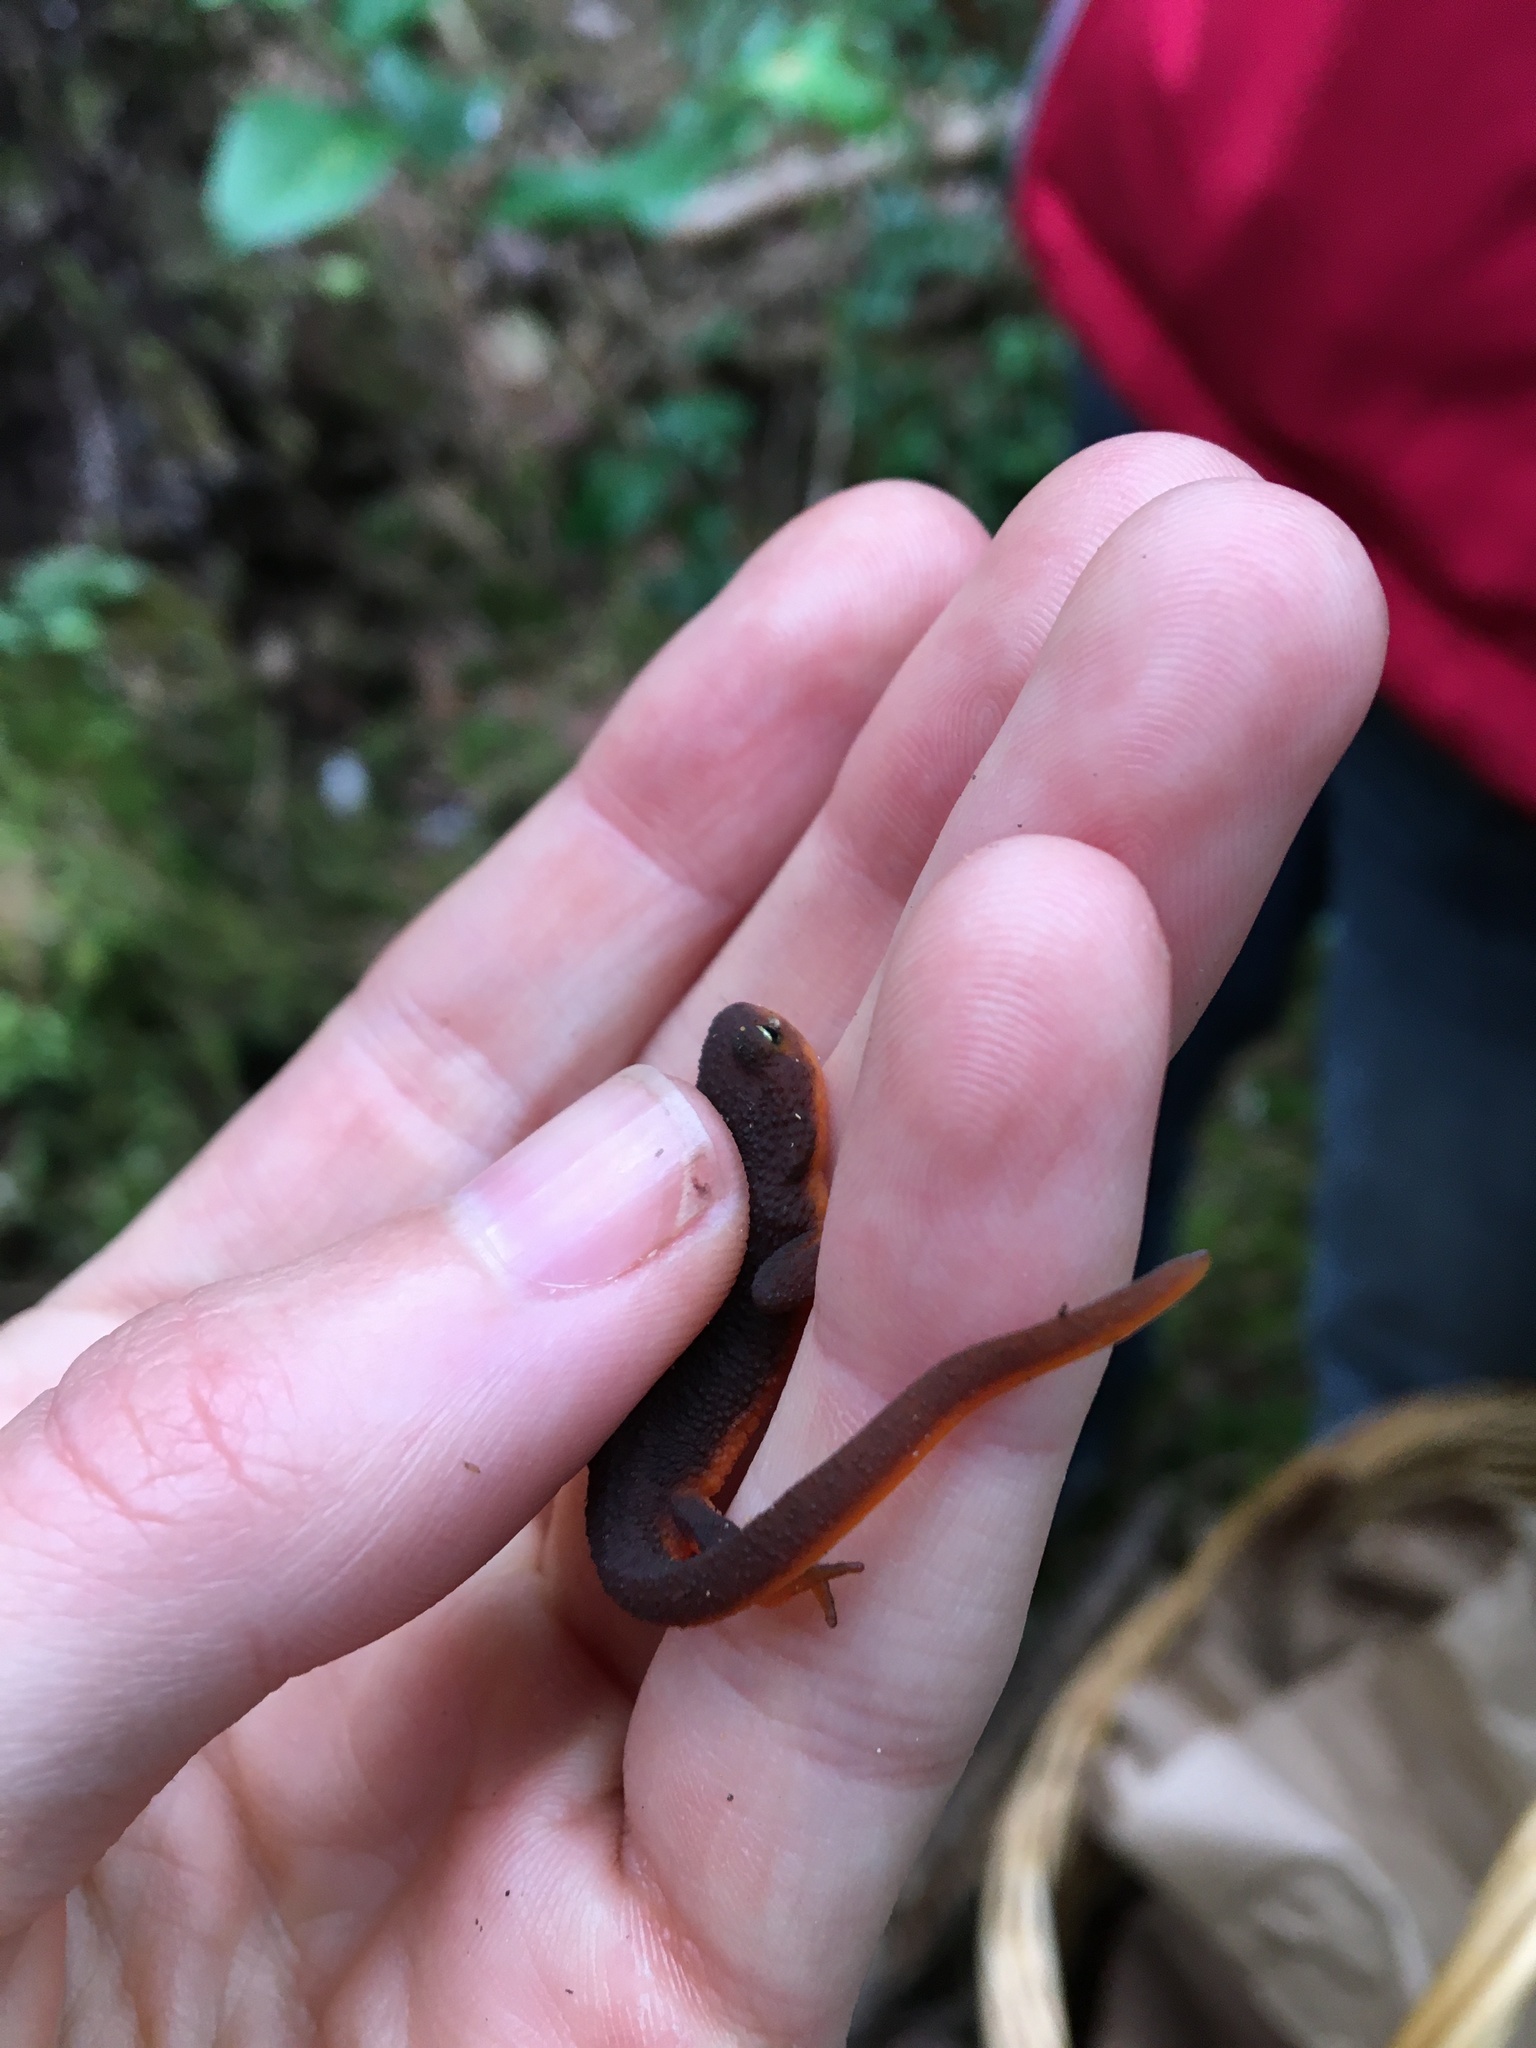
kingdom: Animalia
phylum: Chordata
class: Amphibia
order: Caudata
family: Salamandridae
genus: Taricha
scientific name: Taricha granulosa
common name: Roughskin newt
